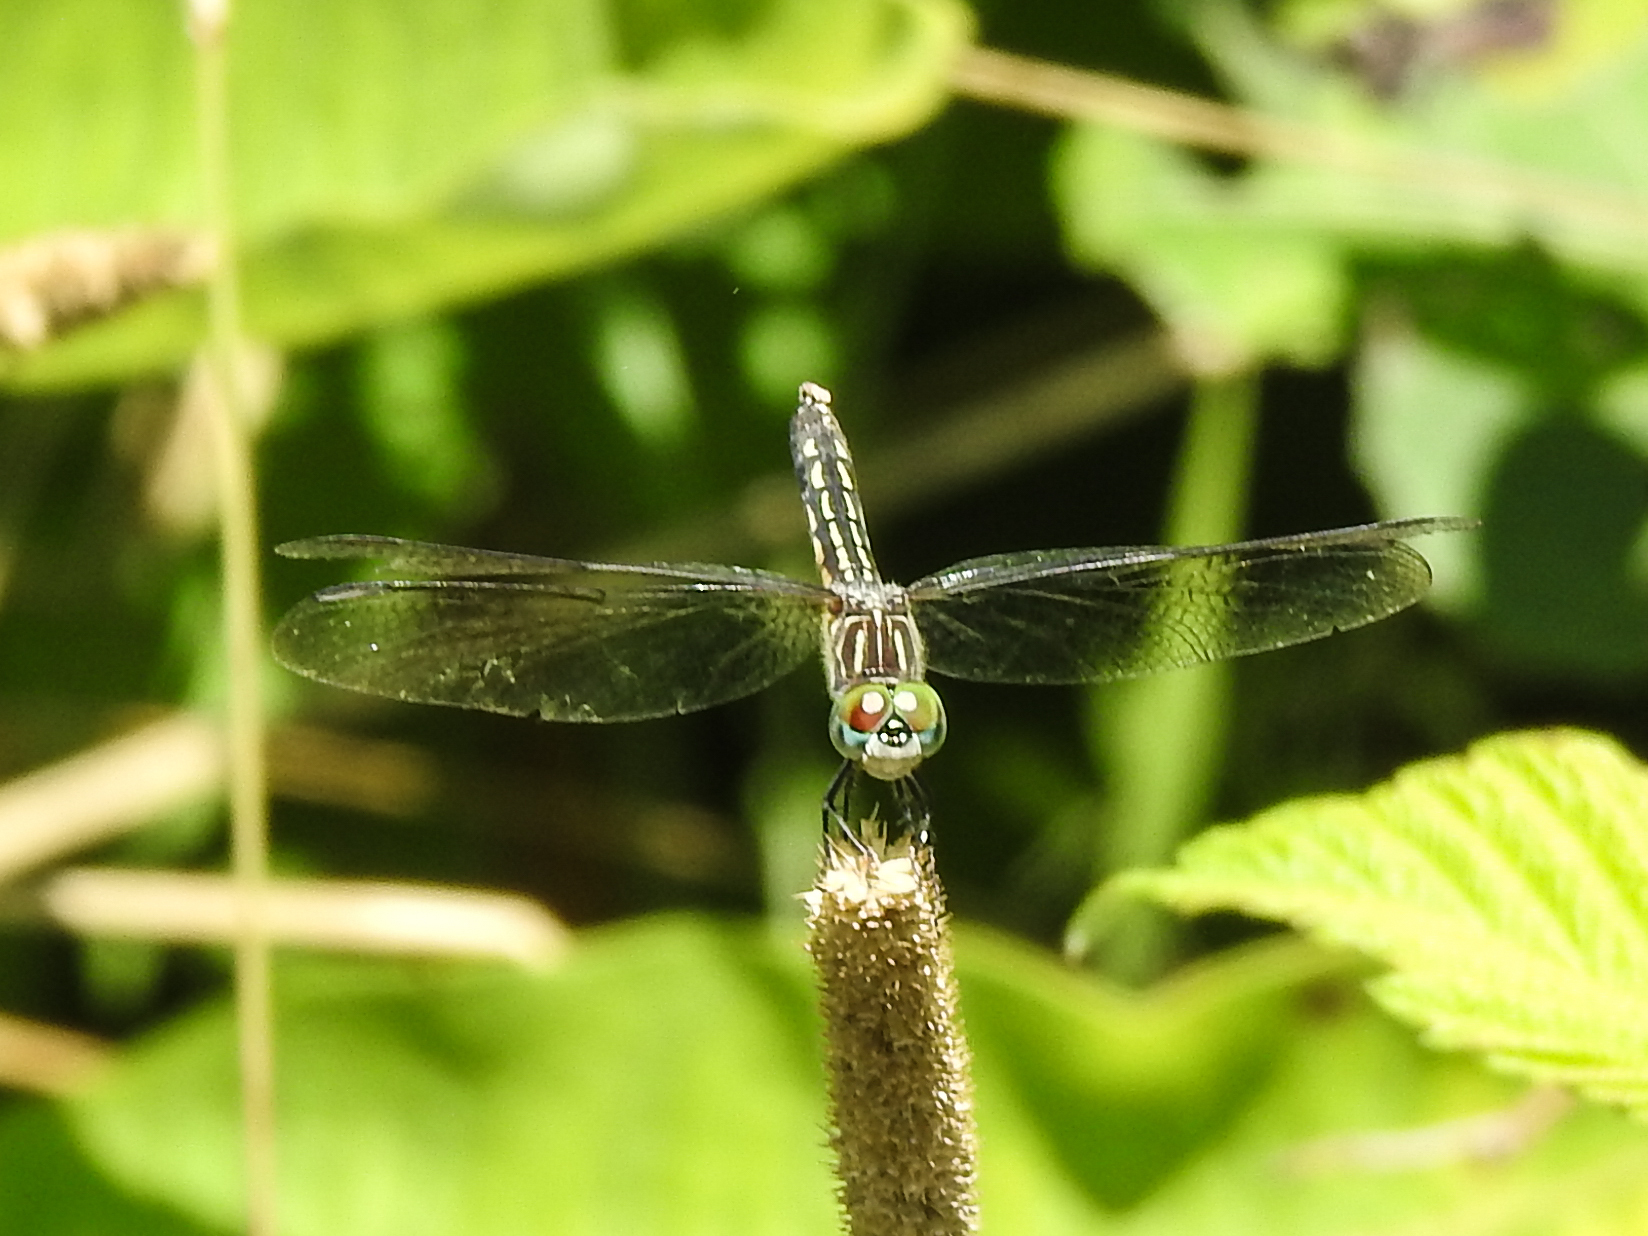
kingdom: Animalia
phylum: Arthropoda
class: Insecta
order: Odonata
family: Libellulidae
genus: Pachydiplax
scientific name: Pachydiplax longipennis
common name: Blue dasher
